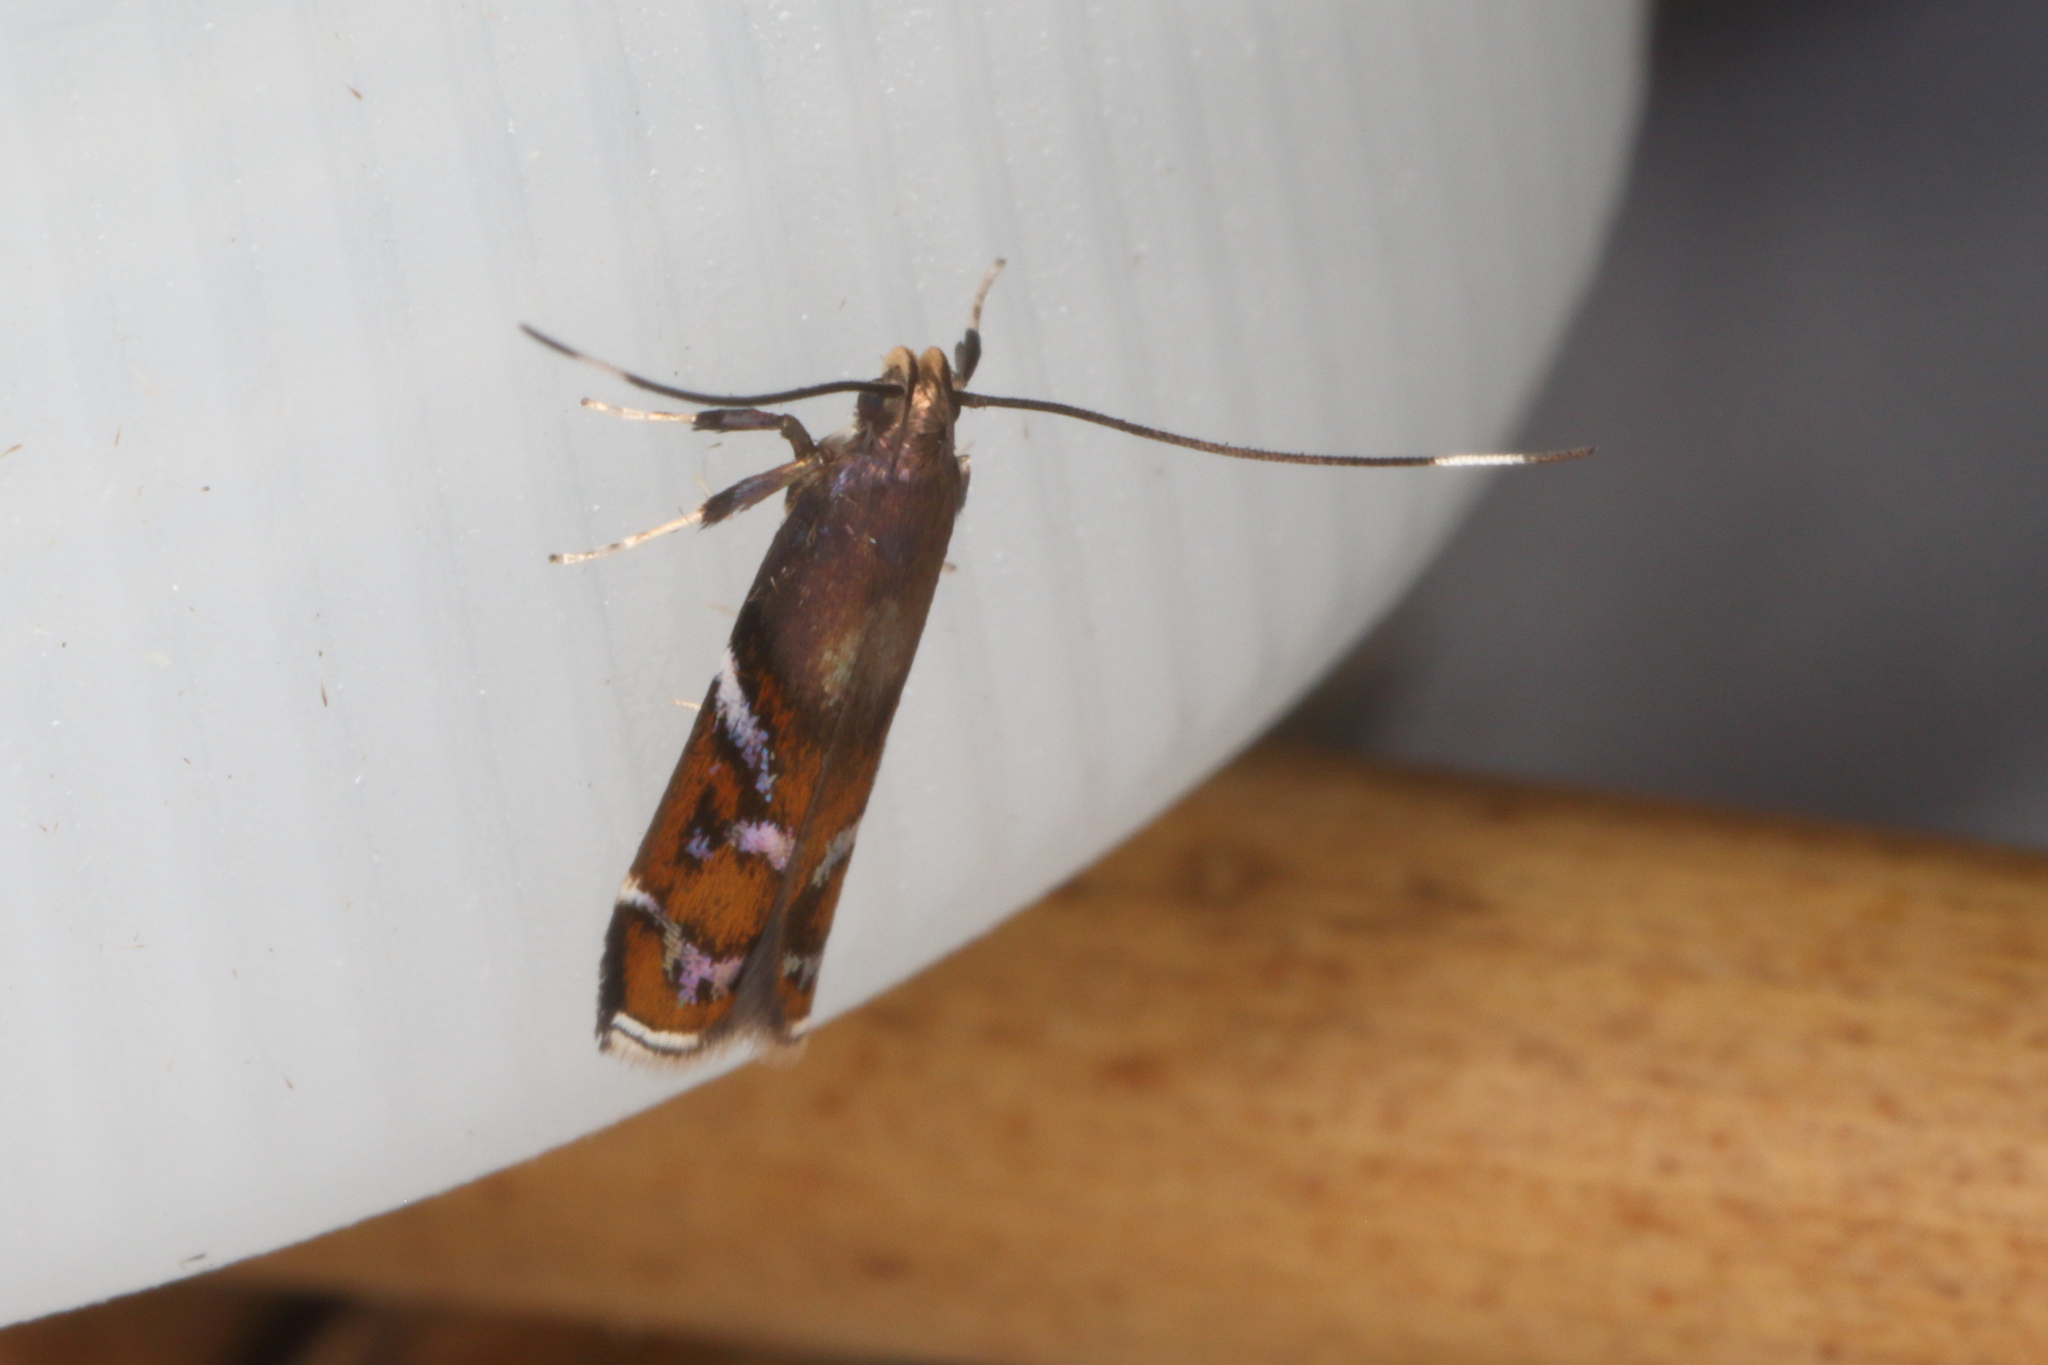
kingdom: Animalia
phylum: Arthropoda
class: Insecta
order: Lepidoptera
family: Depressariidae
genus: Compsistis
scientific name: Compsistis bifaciella
